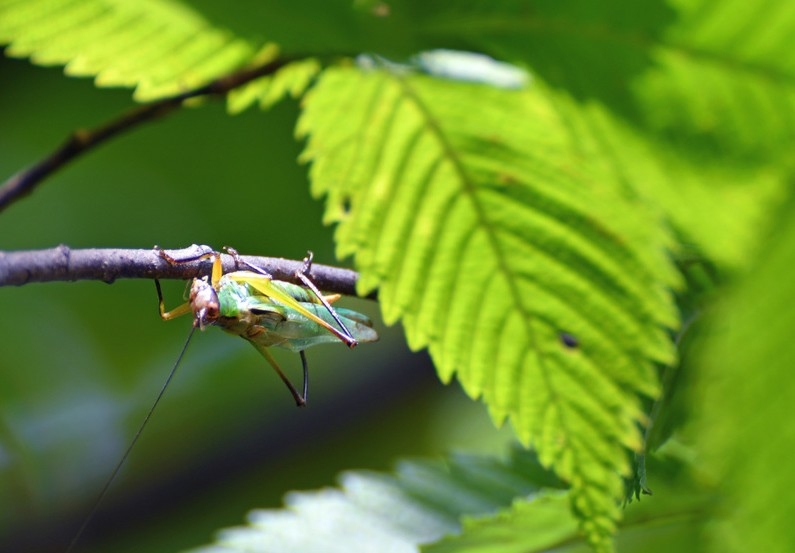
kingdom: Animalia
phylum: Arthropoda
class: Insecta
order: Orthoptera
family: Tettigoniidae
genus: Orchelimum
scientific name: Orchelimum nigripes
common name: Black-legged meadow katydid
